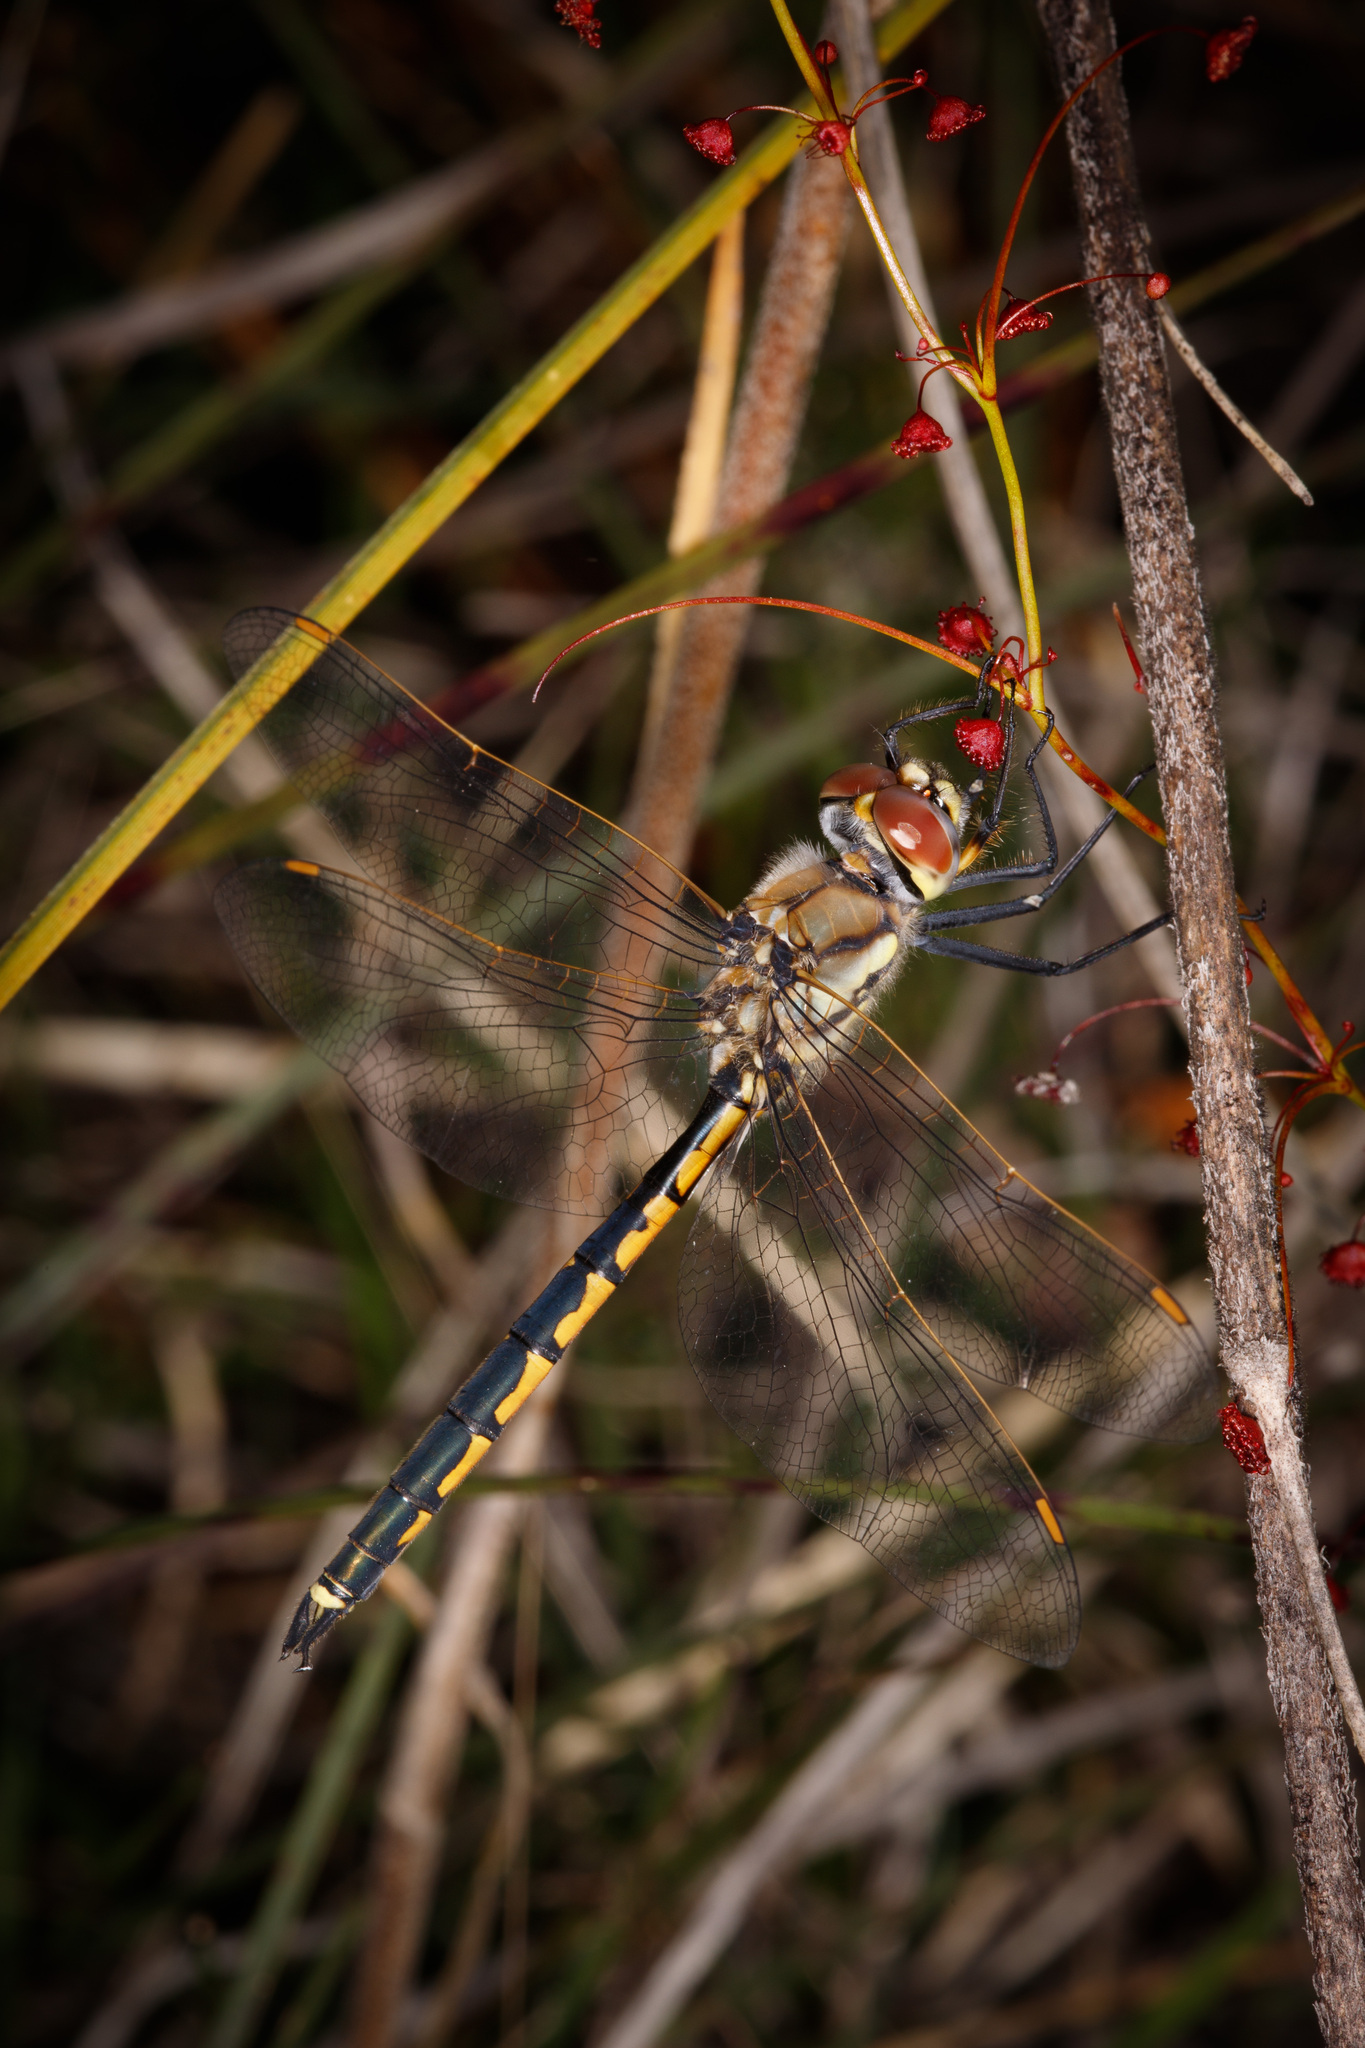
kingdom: Animalia
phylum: Arthropoda
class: Insecta
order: Odonata
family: Corduliidae
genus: Hemicordulia
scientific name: Hemicordulia tau
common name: Tau emerald
